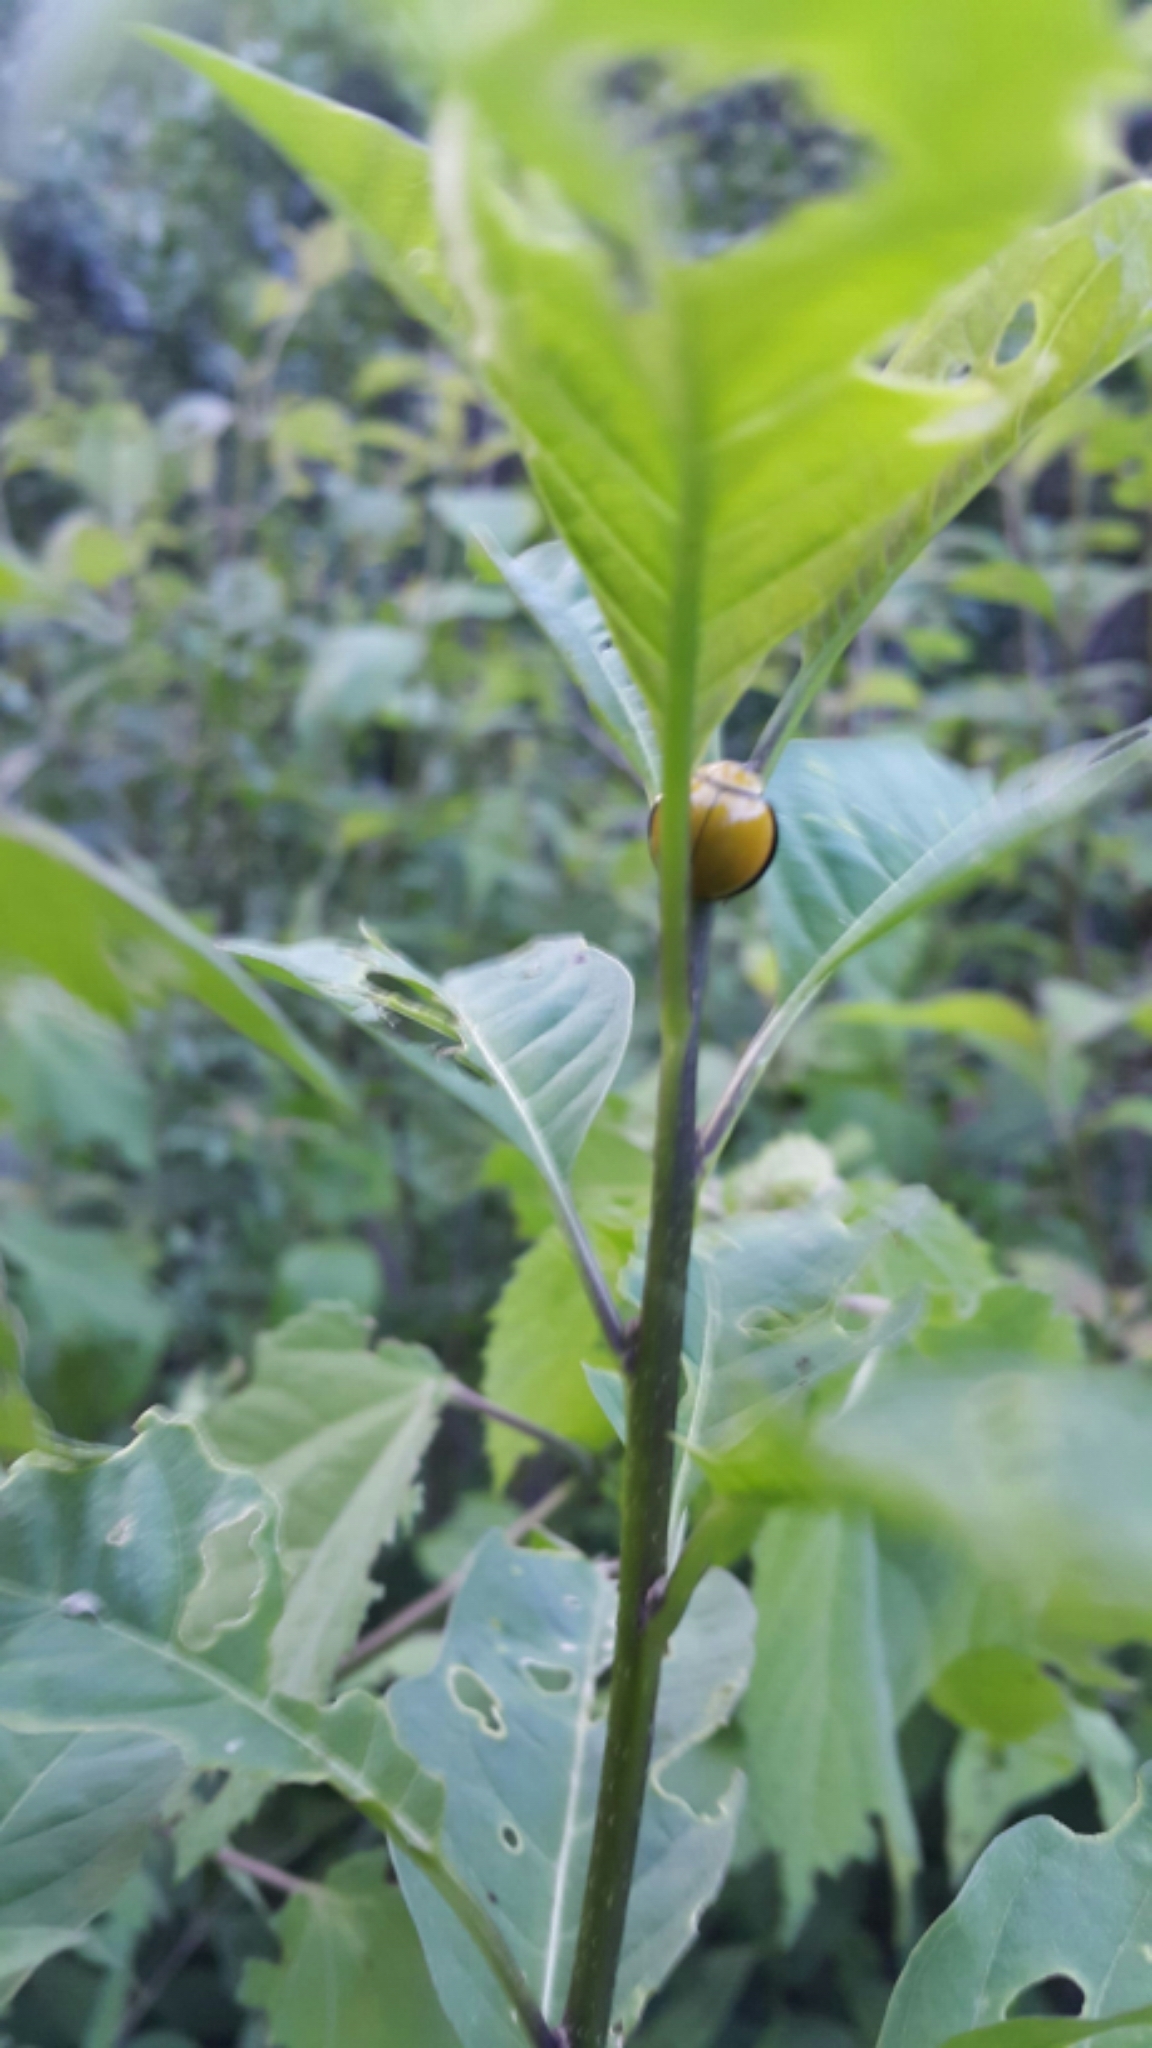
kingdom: Animalia
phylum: Arthropoda
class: Insecta
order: Coleoptera
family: Coccinellidae
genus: Neda
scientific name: Neda
